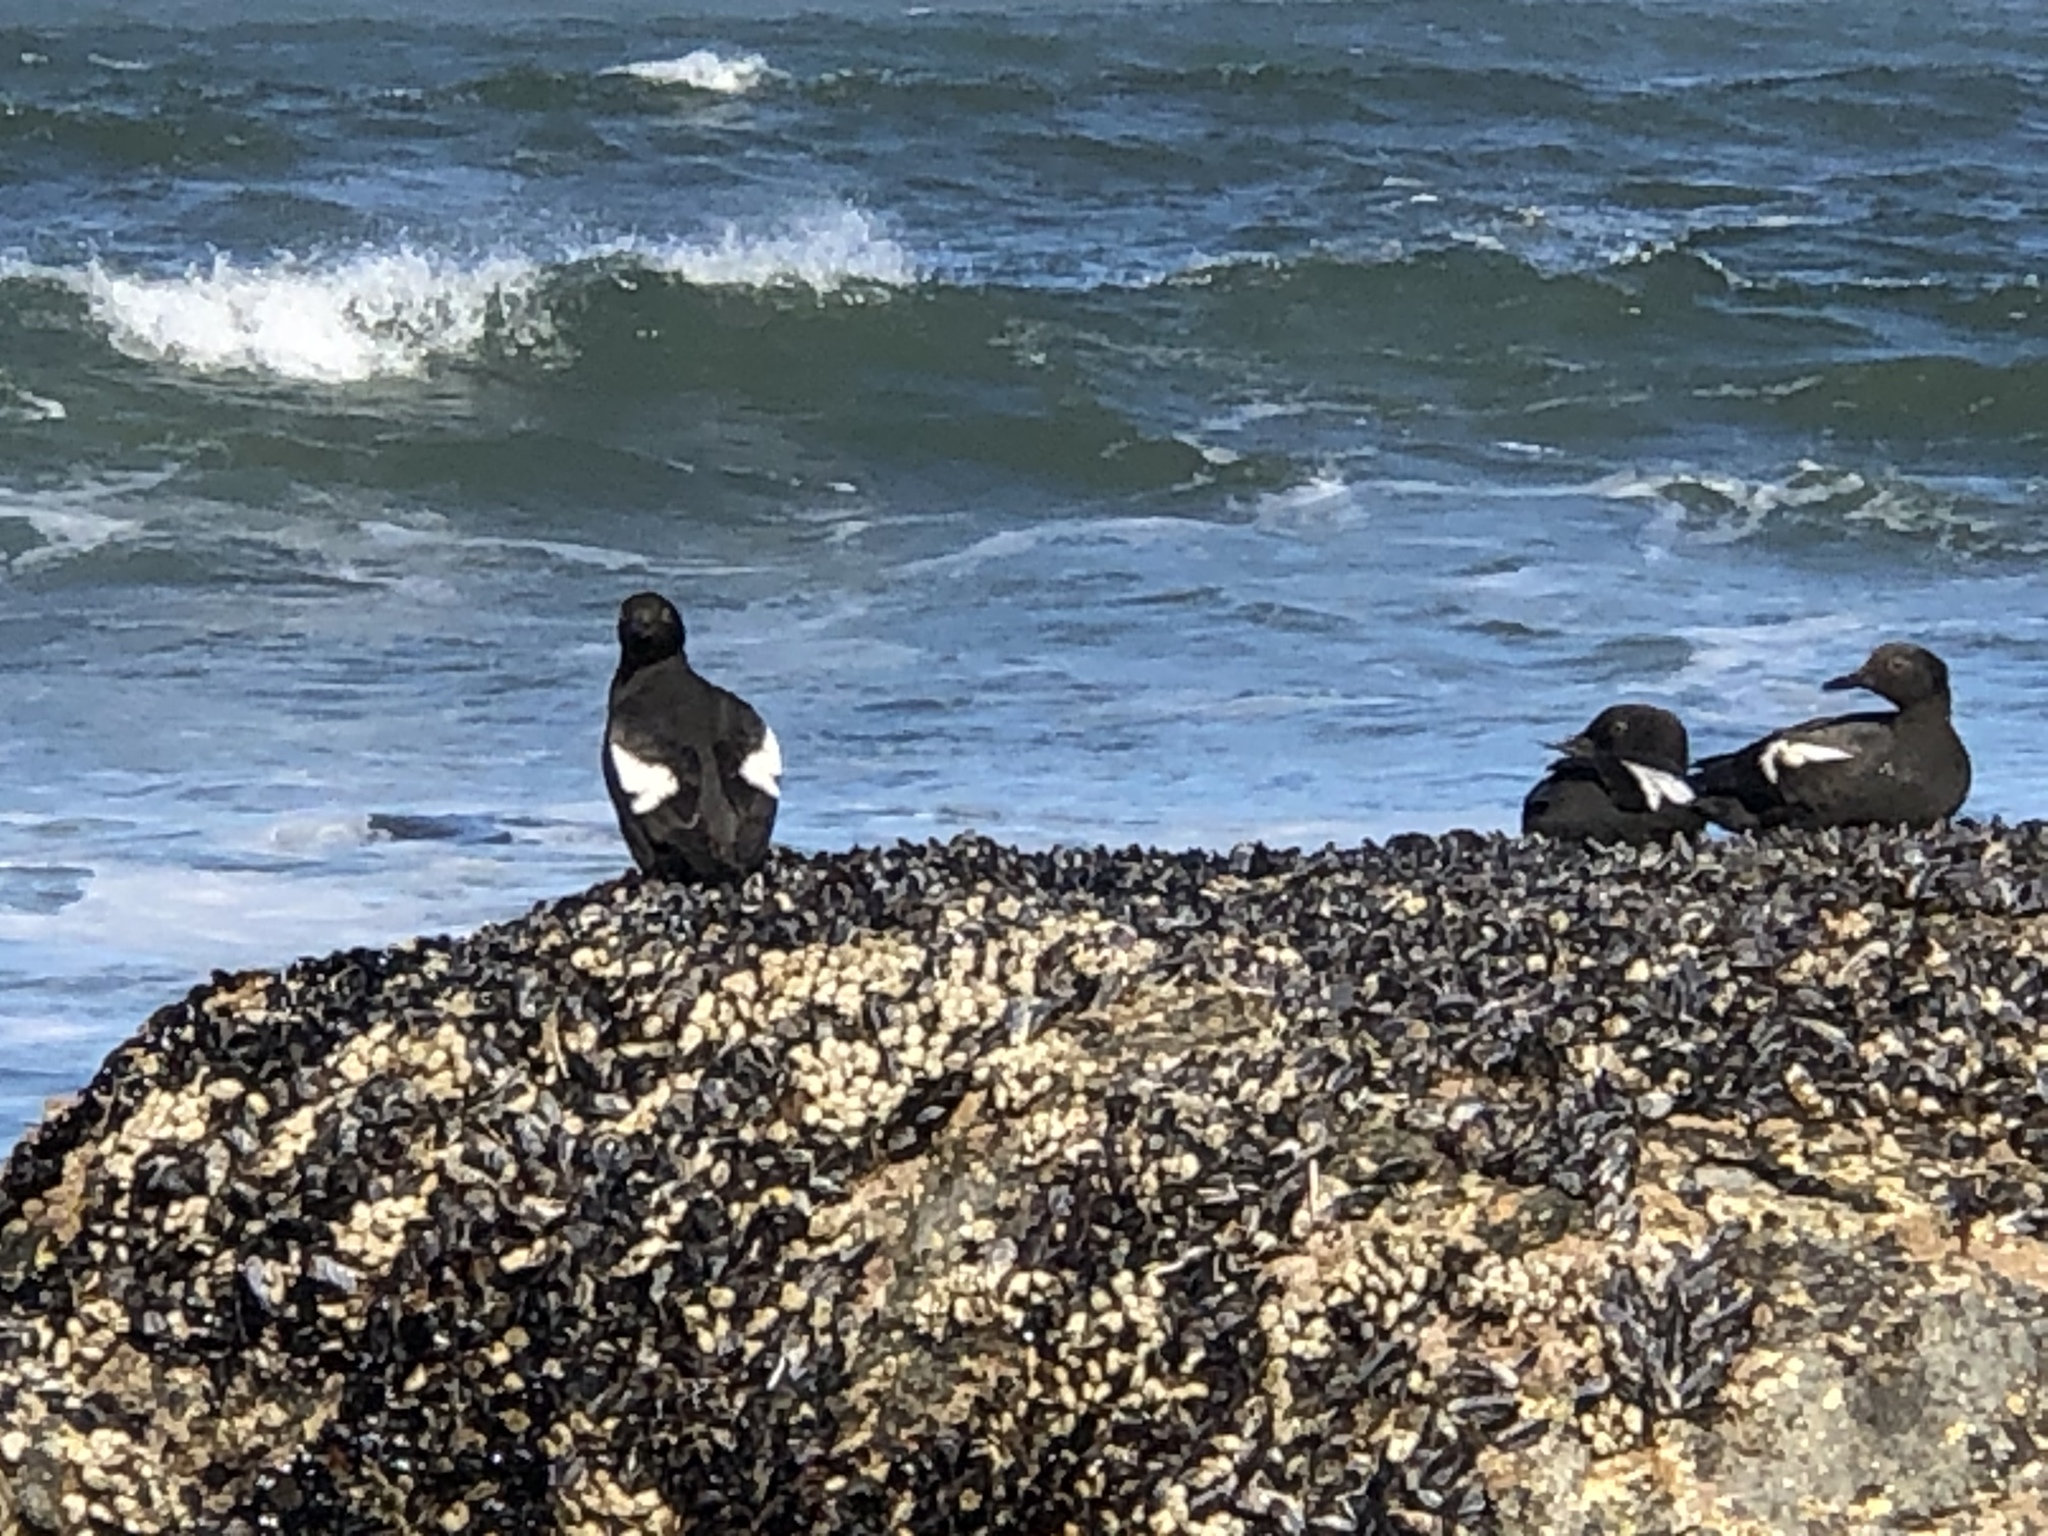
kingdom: Animalia
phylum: Chordata
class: Aves
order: Charadriiformes
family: Alcidae
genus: Cepphus
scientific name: Cepphus columba
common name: Pigeon guillemot
